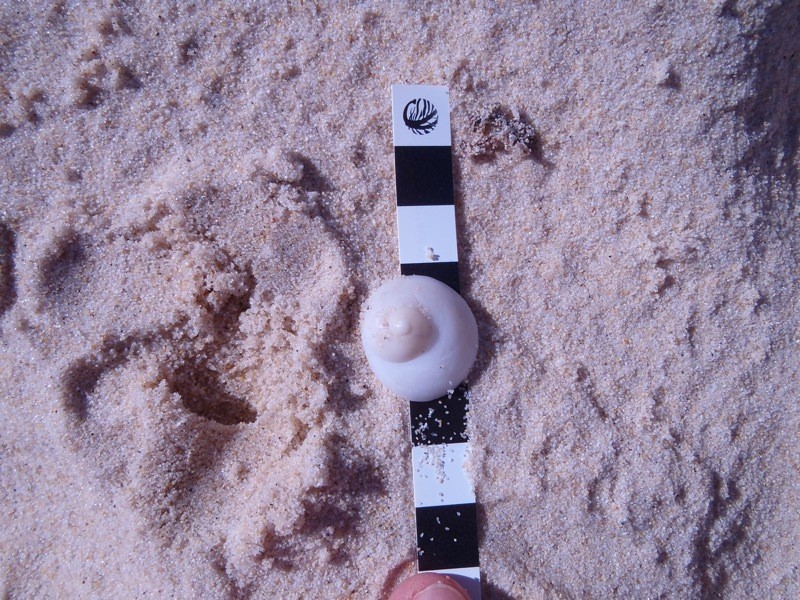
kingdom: Animalia
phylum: Mollusca
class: Gastropoda
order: Littorinimorpha
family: Calyptraeidae
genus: Sigapatella
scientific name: Sigapatella calyptraeformis
